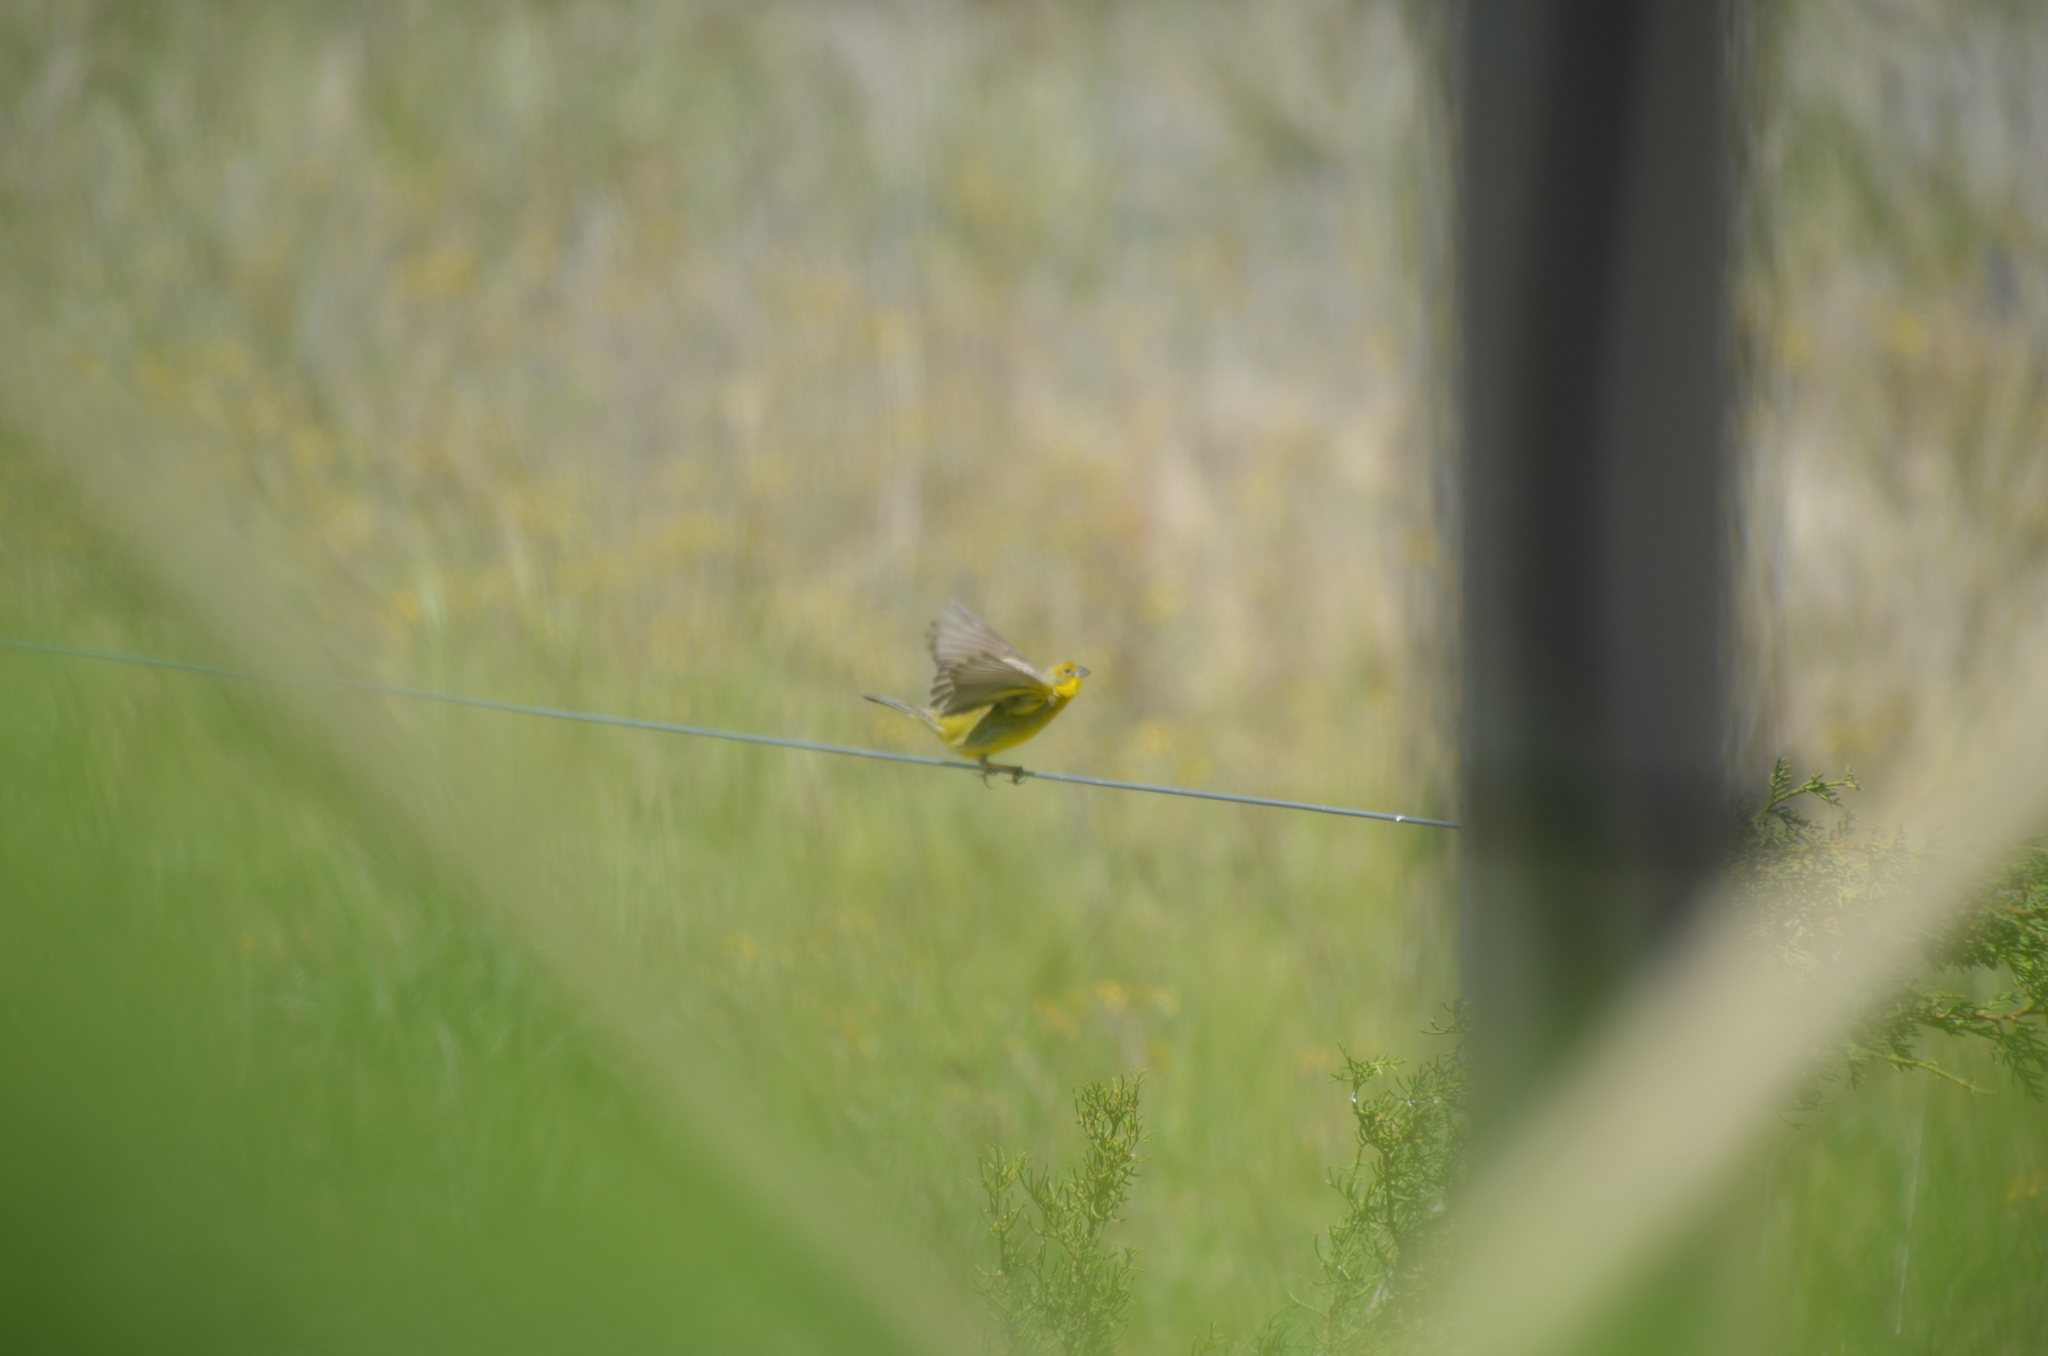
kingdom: Animalia
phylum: Chordata
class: Aves
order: Passeriformes
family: Thraupidae
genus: Sicalis
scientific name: Sicalis luteola
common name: Grassland yellow-finch
